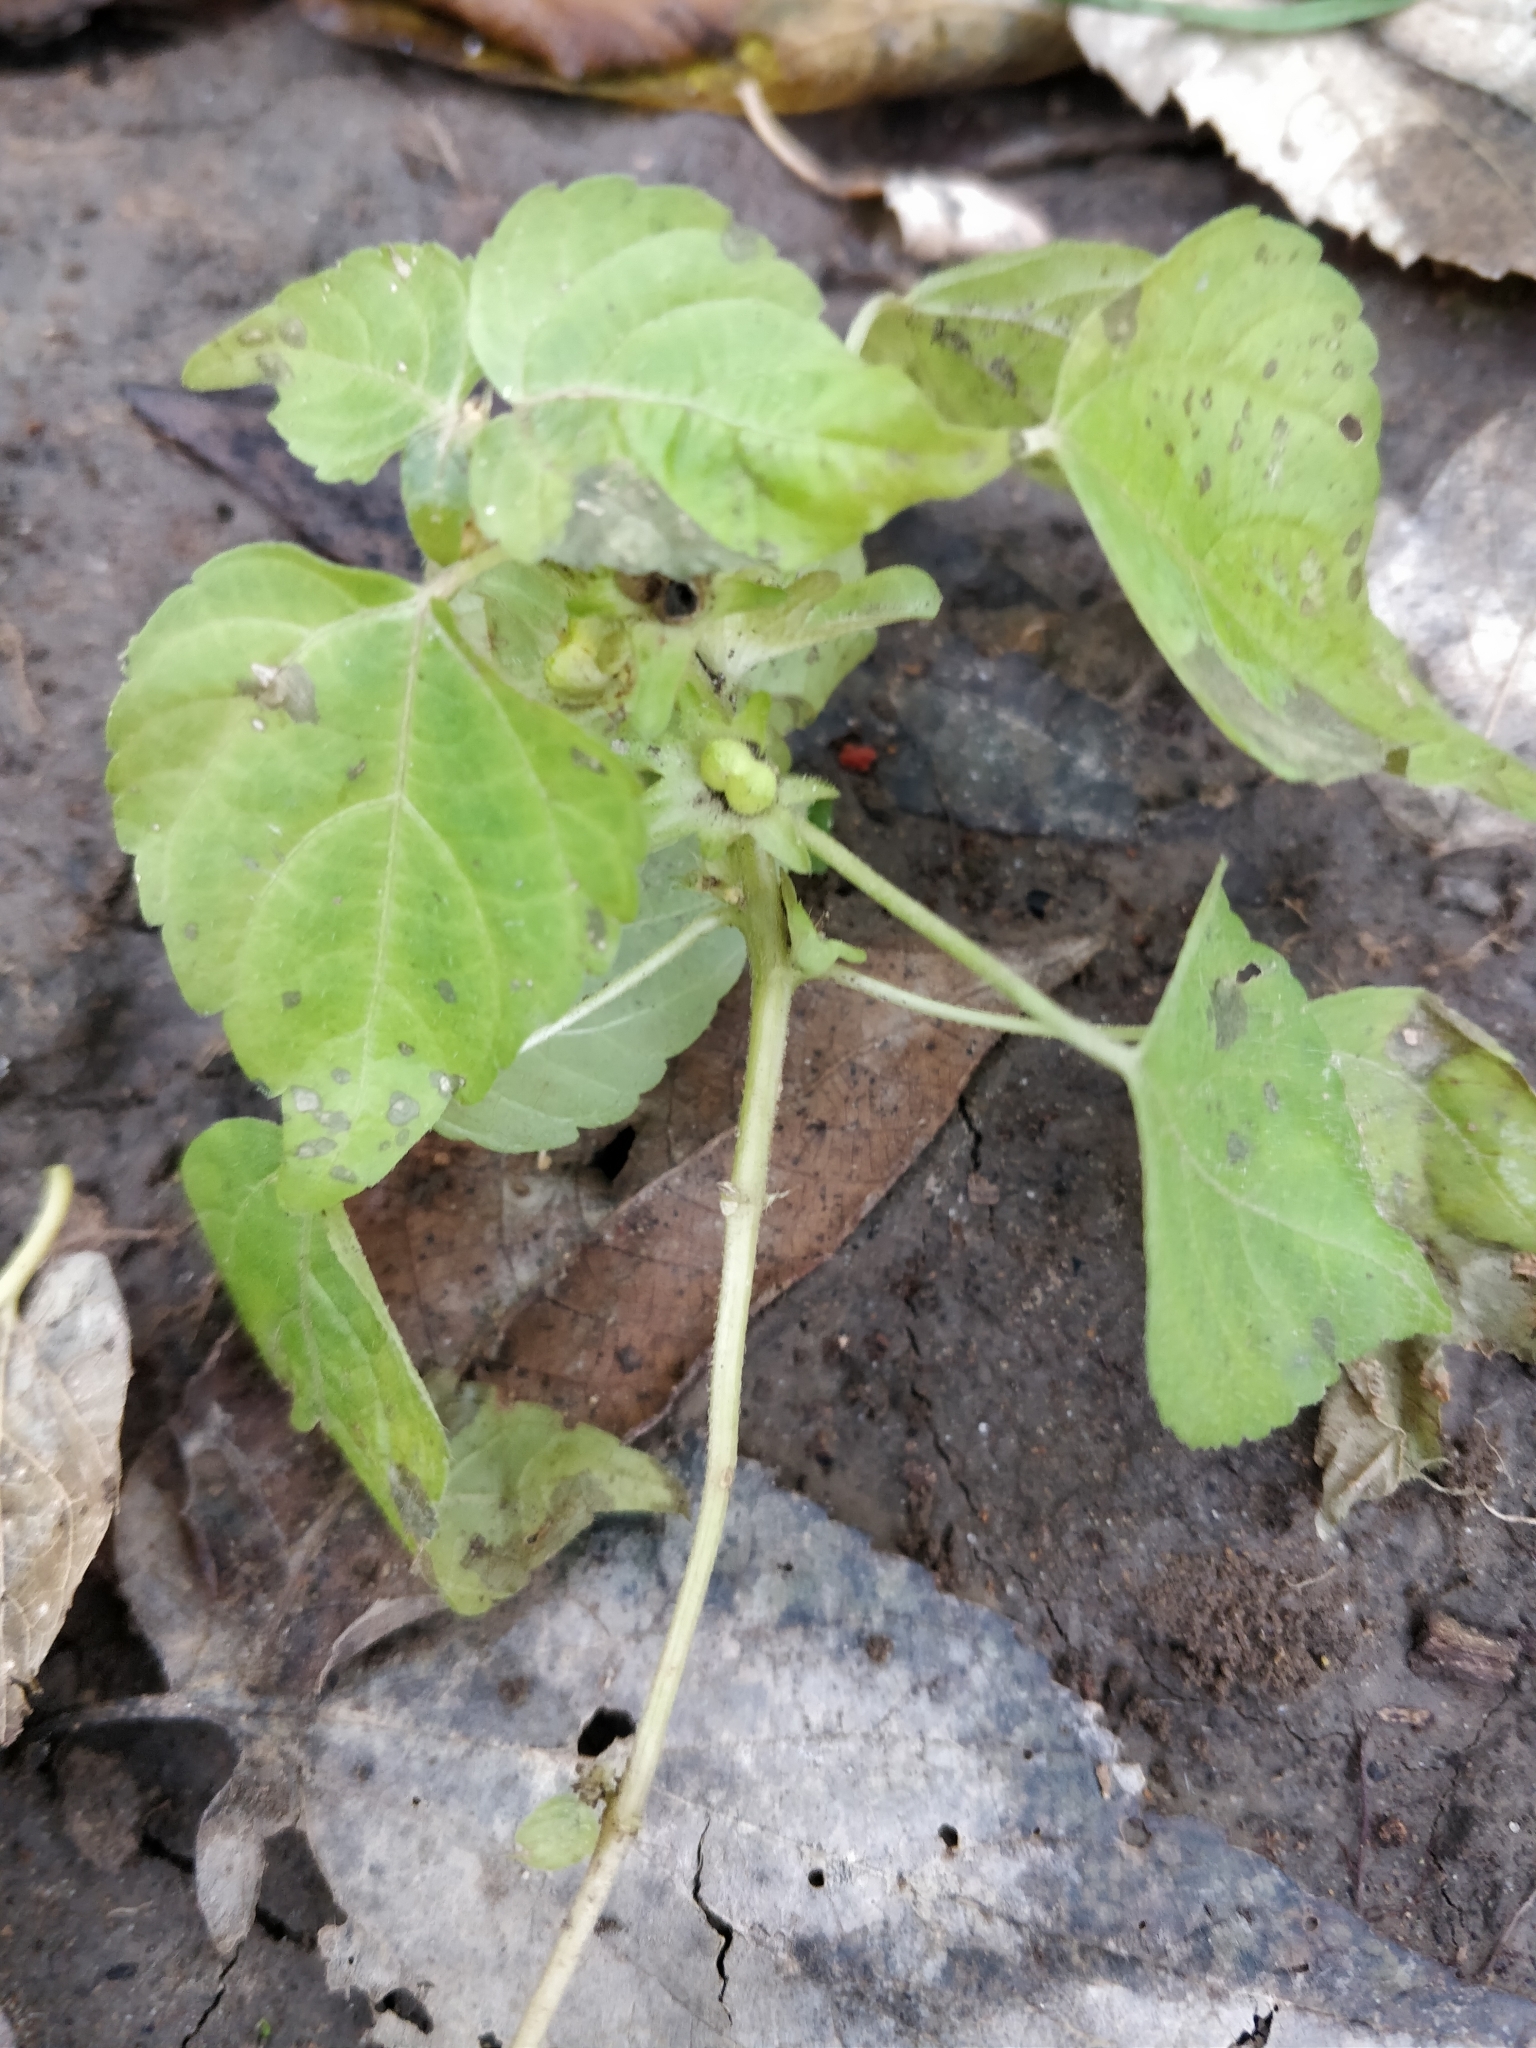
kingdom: Plantae
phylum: Tracheophyta
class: Magnoliopsida
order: Malpighiales
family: Euphorbiaceae
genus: Acalypha
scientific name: Acalypha deamii
